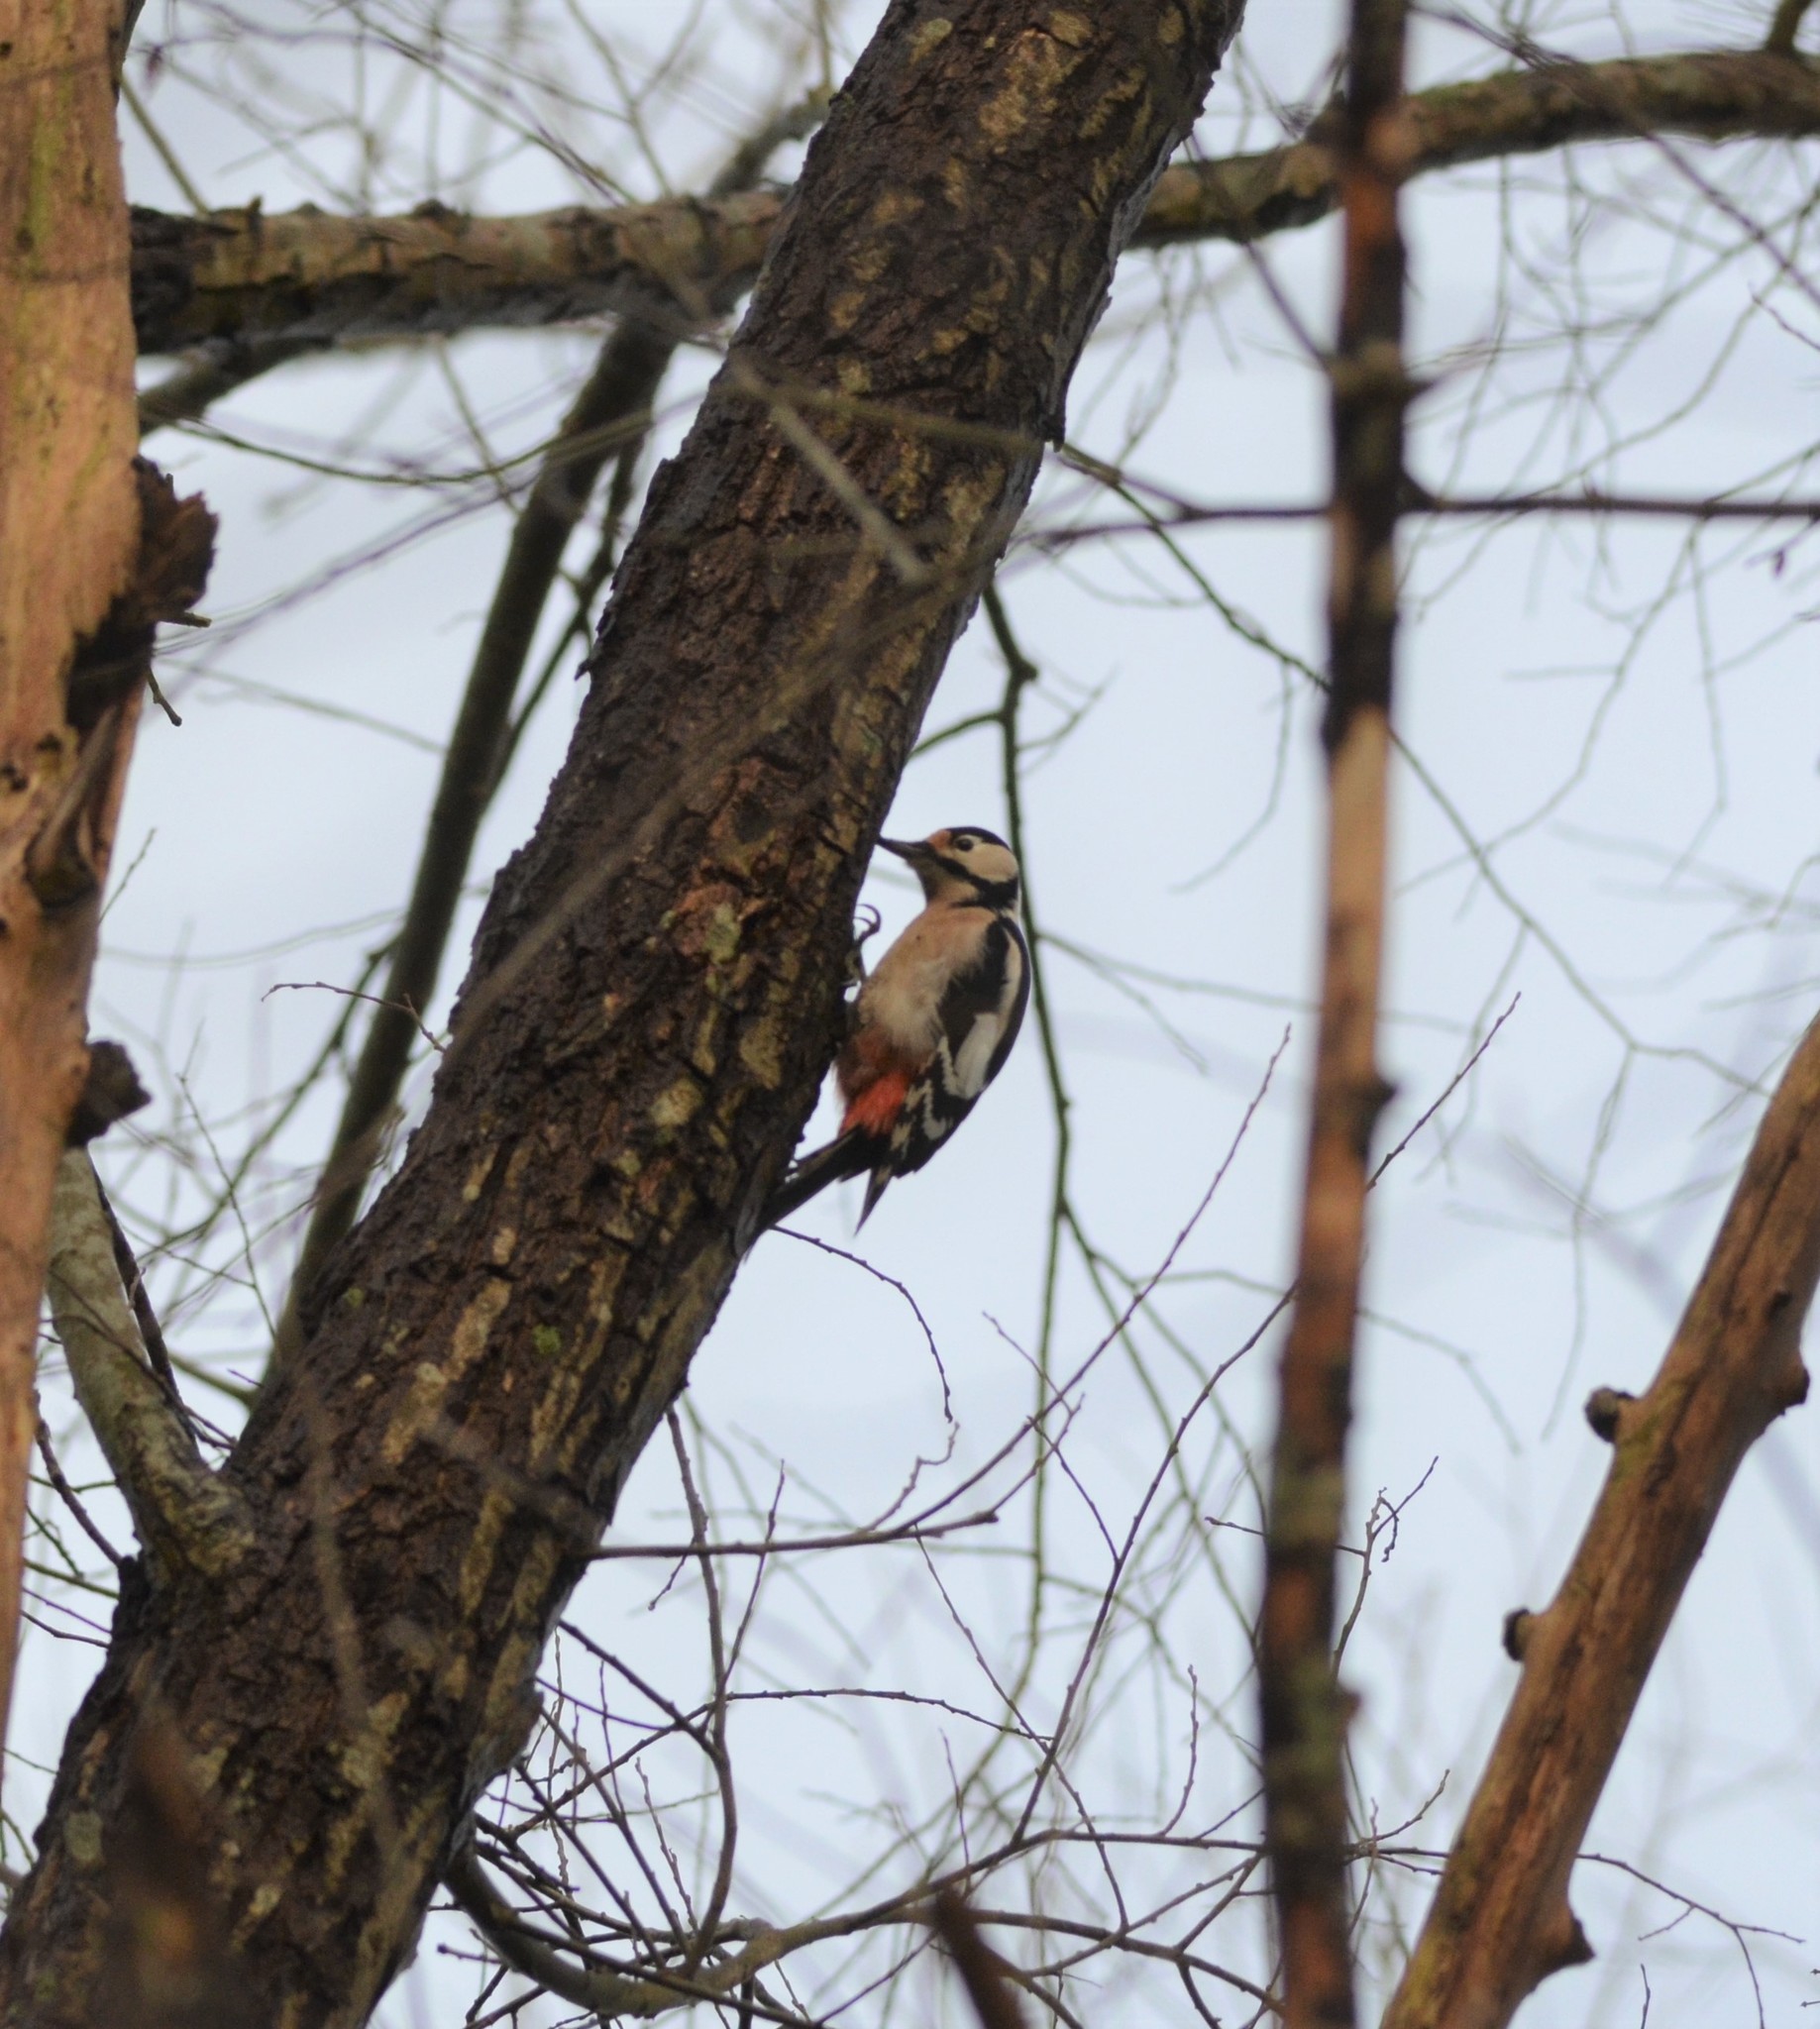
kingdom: Animalia
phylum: Chordata
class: Aves
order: Piciformes
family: Picidae
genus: Dendrocopos
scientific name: Dendrocopos major
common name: Great spotted woodpecker
